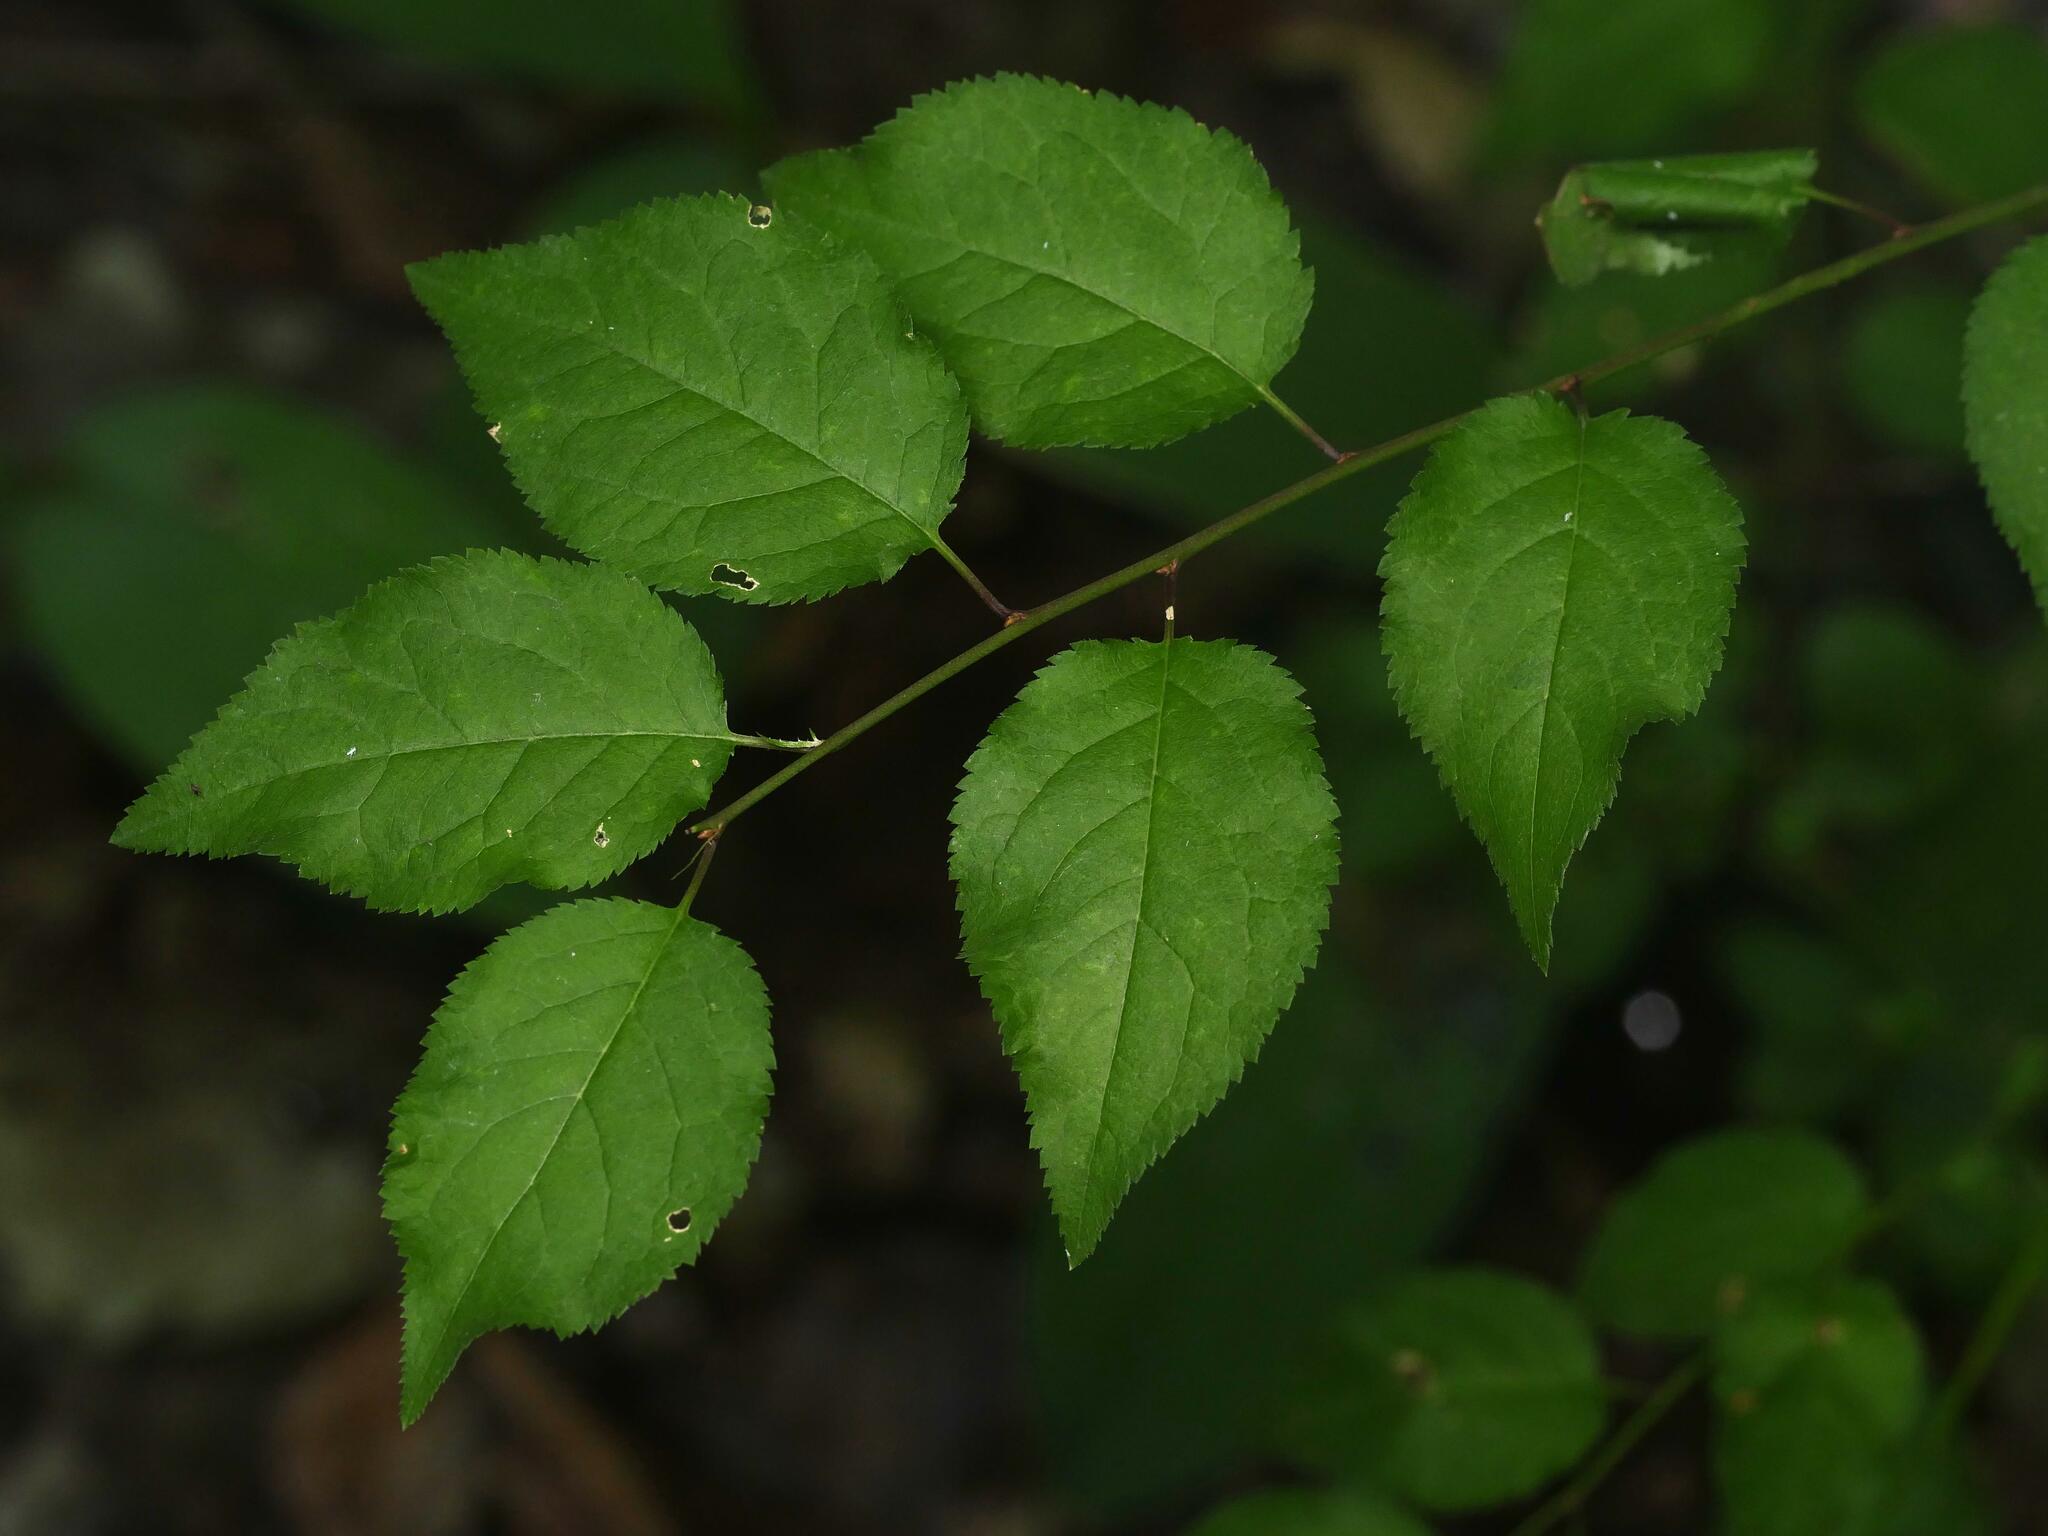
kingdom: Plantae
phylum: Tracheophyta
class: Magnoliopsida
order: Rosales
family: Rosaceae
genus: Prunus
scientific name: Prunus cerasifera
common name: Cherry plum
